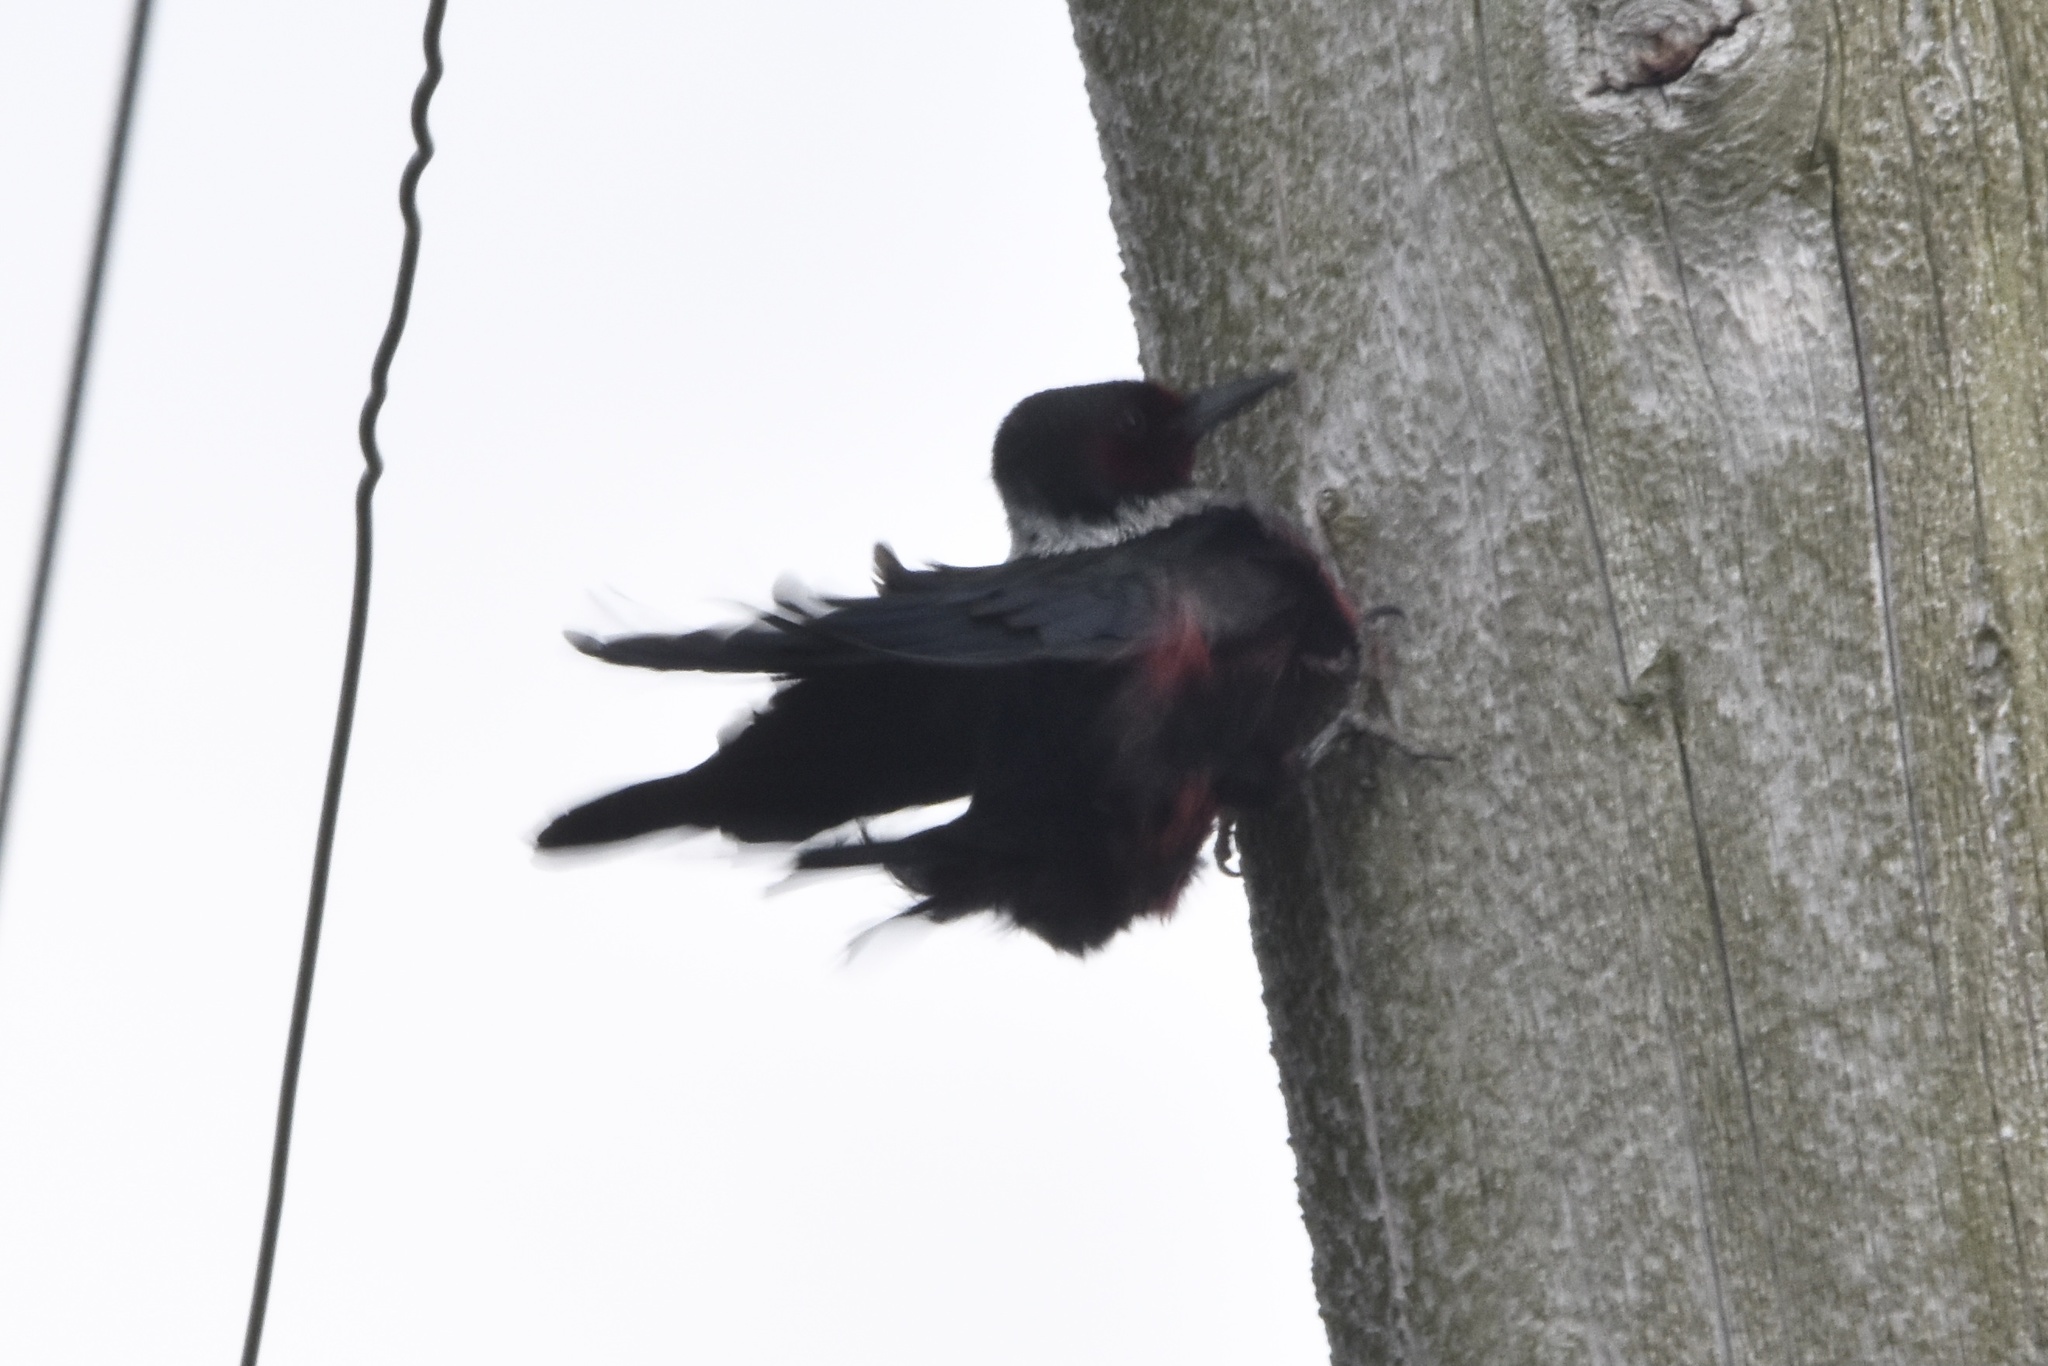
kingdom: Animalia
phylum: Chordata
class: Aves
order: Piciformes
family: Picidae
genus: Melanerpes
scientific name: Melanerpes lewis
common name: Lewis's woodpecker
